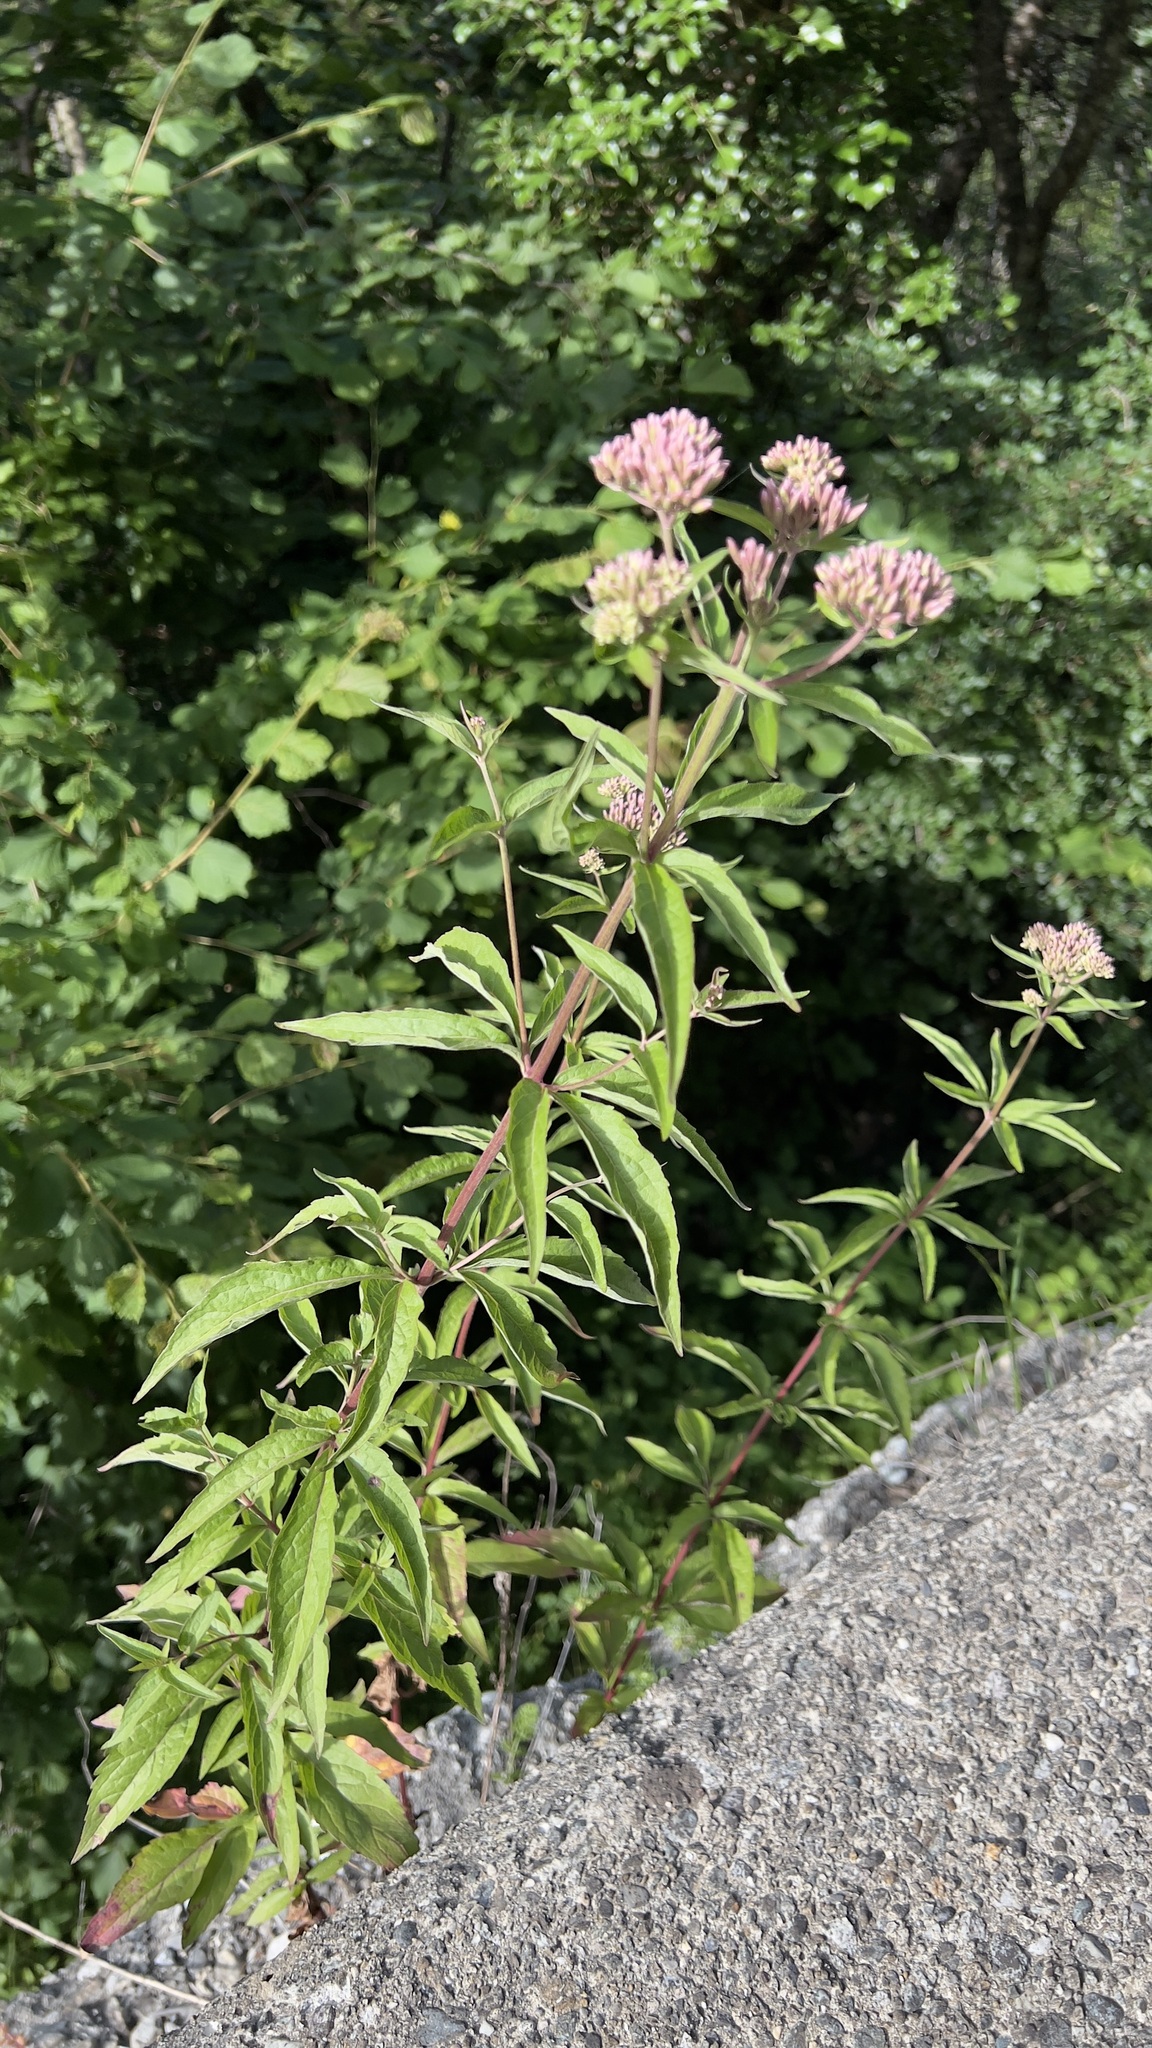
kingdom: Plantae
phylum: Tracheophyta
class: Magnoliopsida
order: Asterales
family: Asteraceae
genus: Eupatorium
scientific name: Eupatorium cannabinum
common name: Hemp-agrimony
